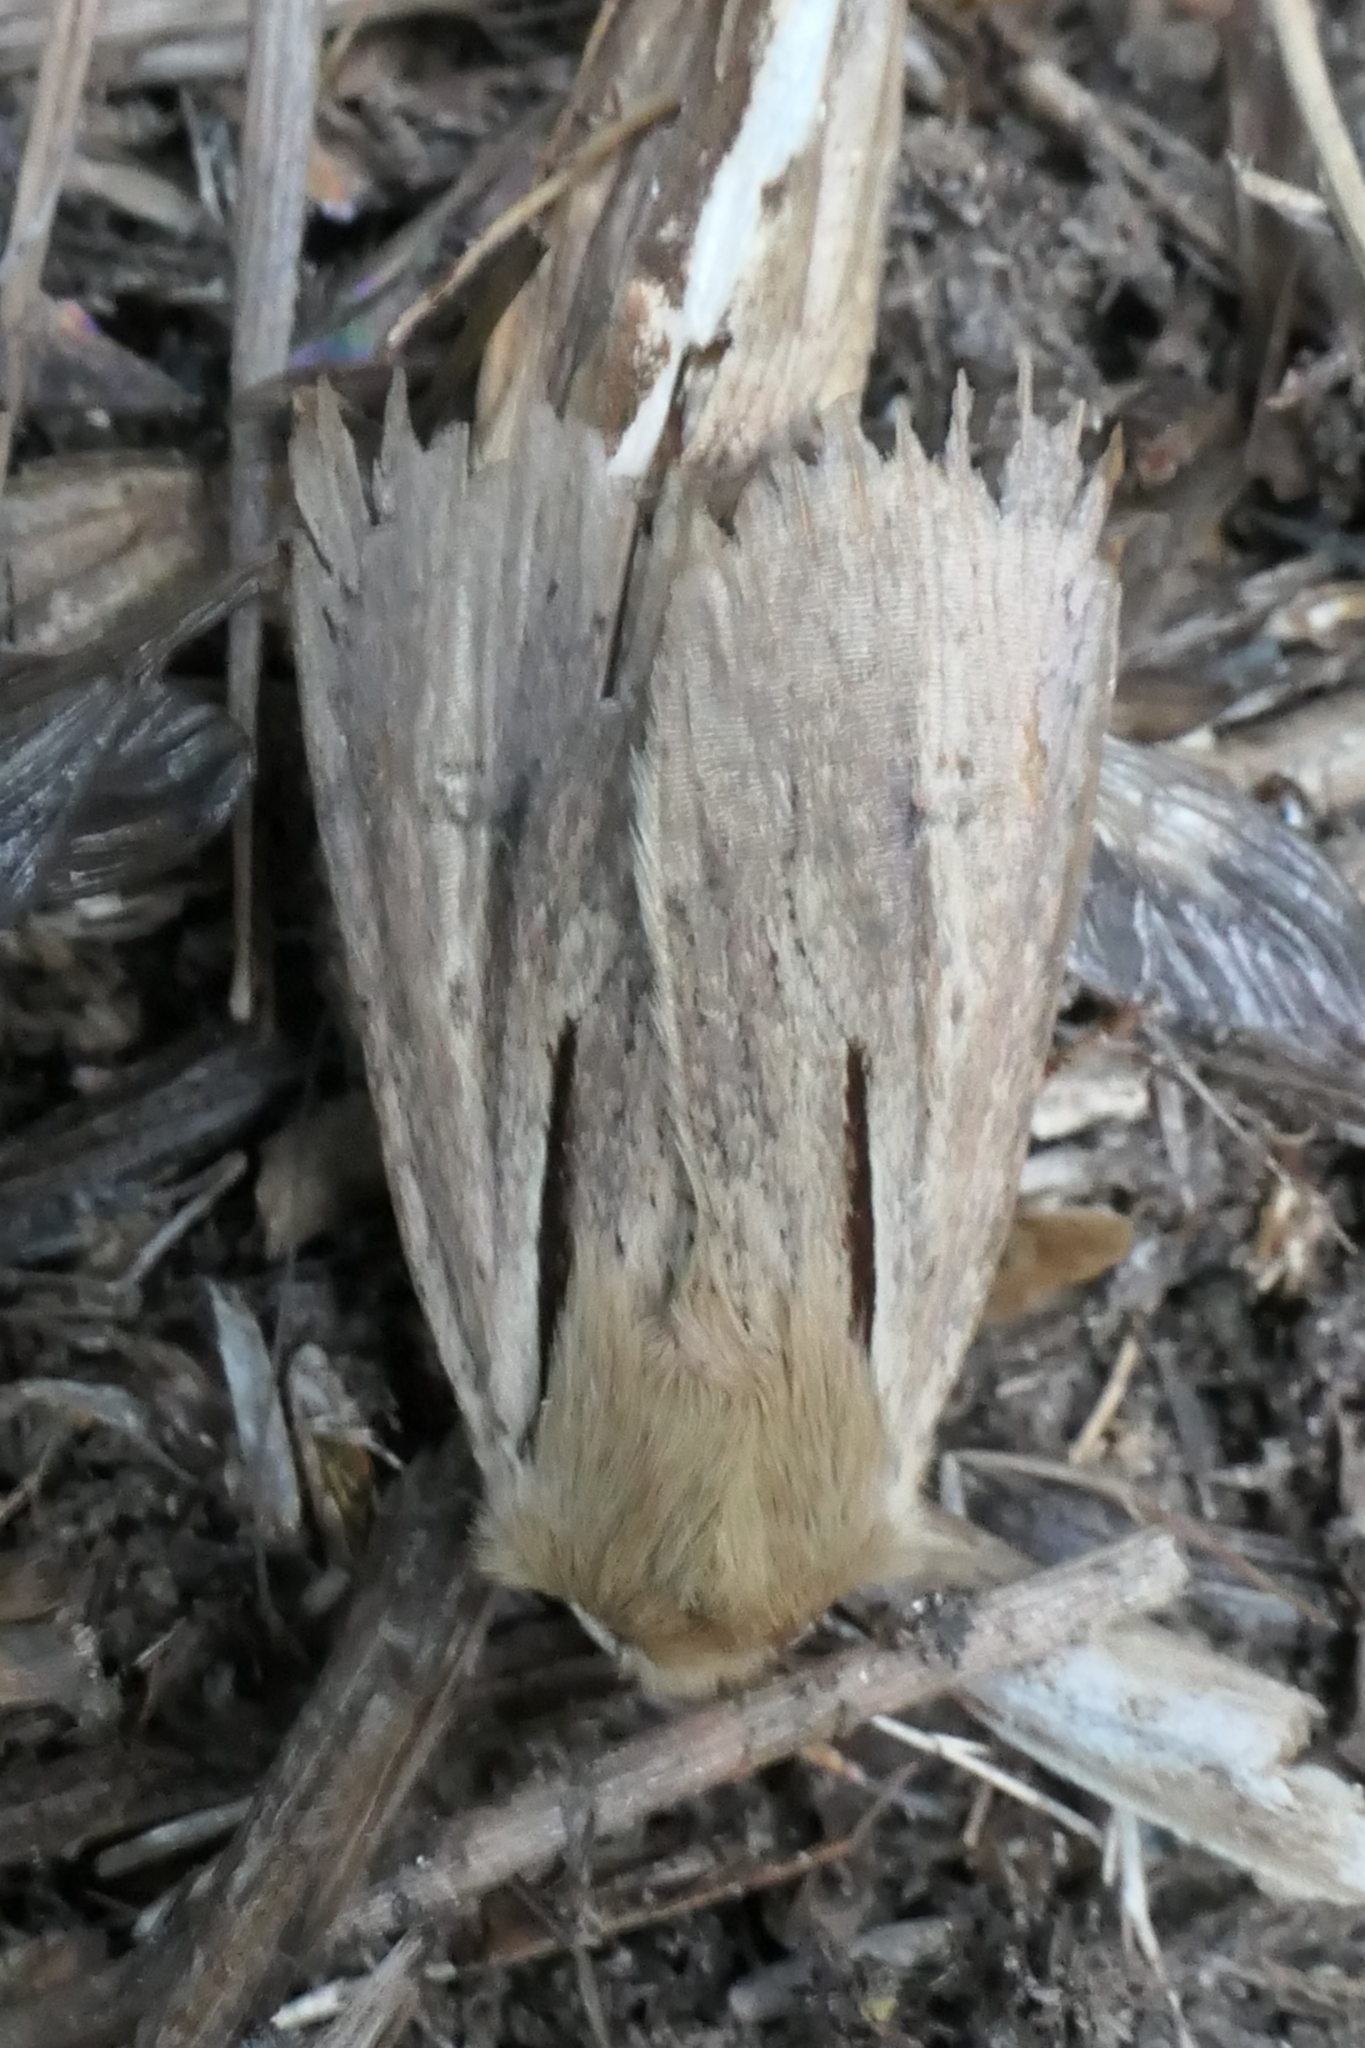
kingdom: Animalia
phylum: Arthropoda
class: Insecta
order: Lepidoptera
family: Noctuidae
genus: Ichneutica
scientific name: Ichneutica atristriga
